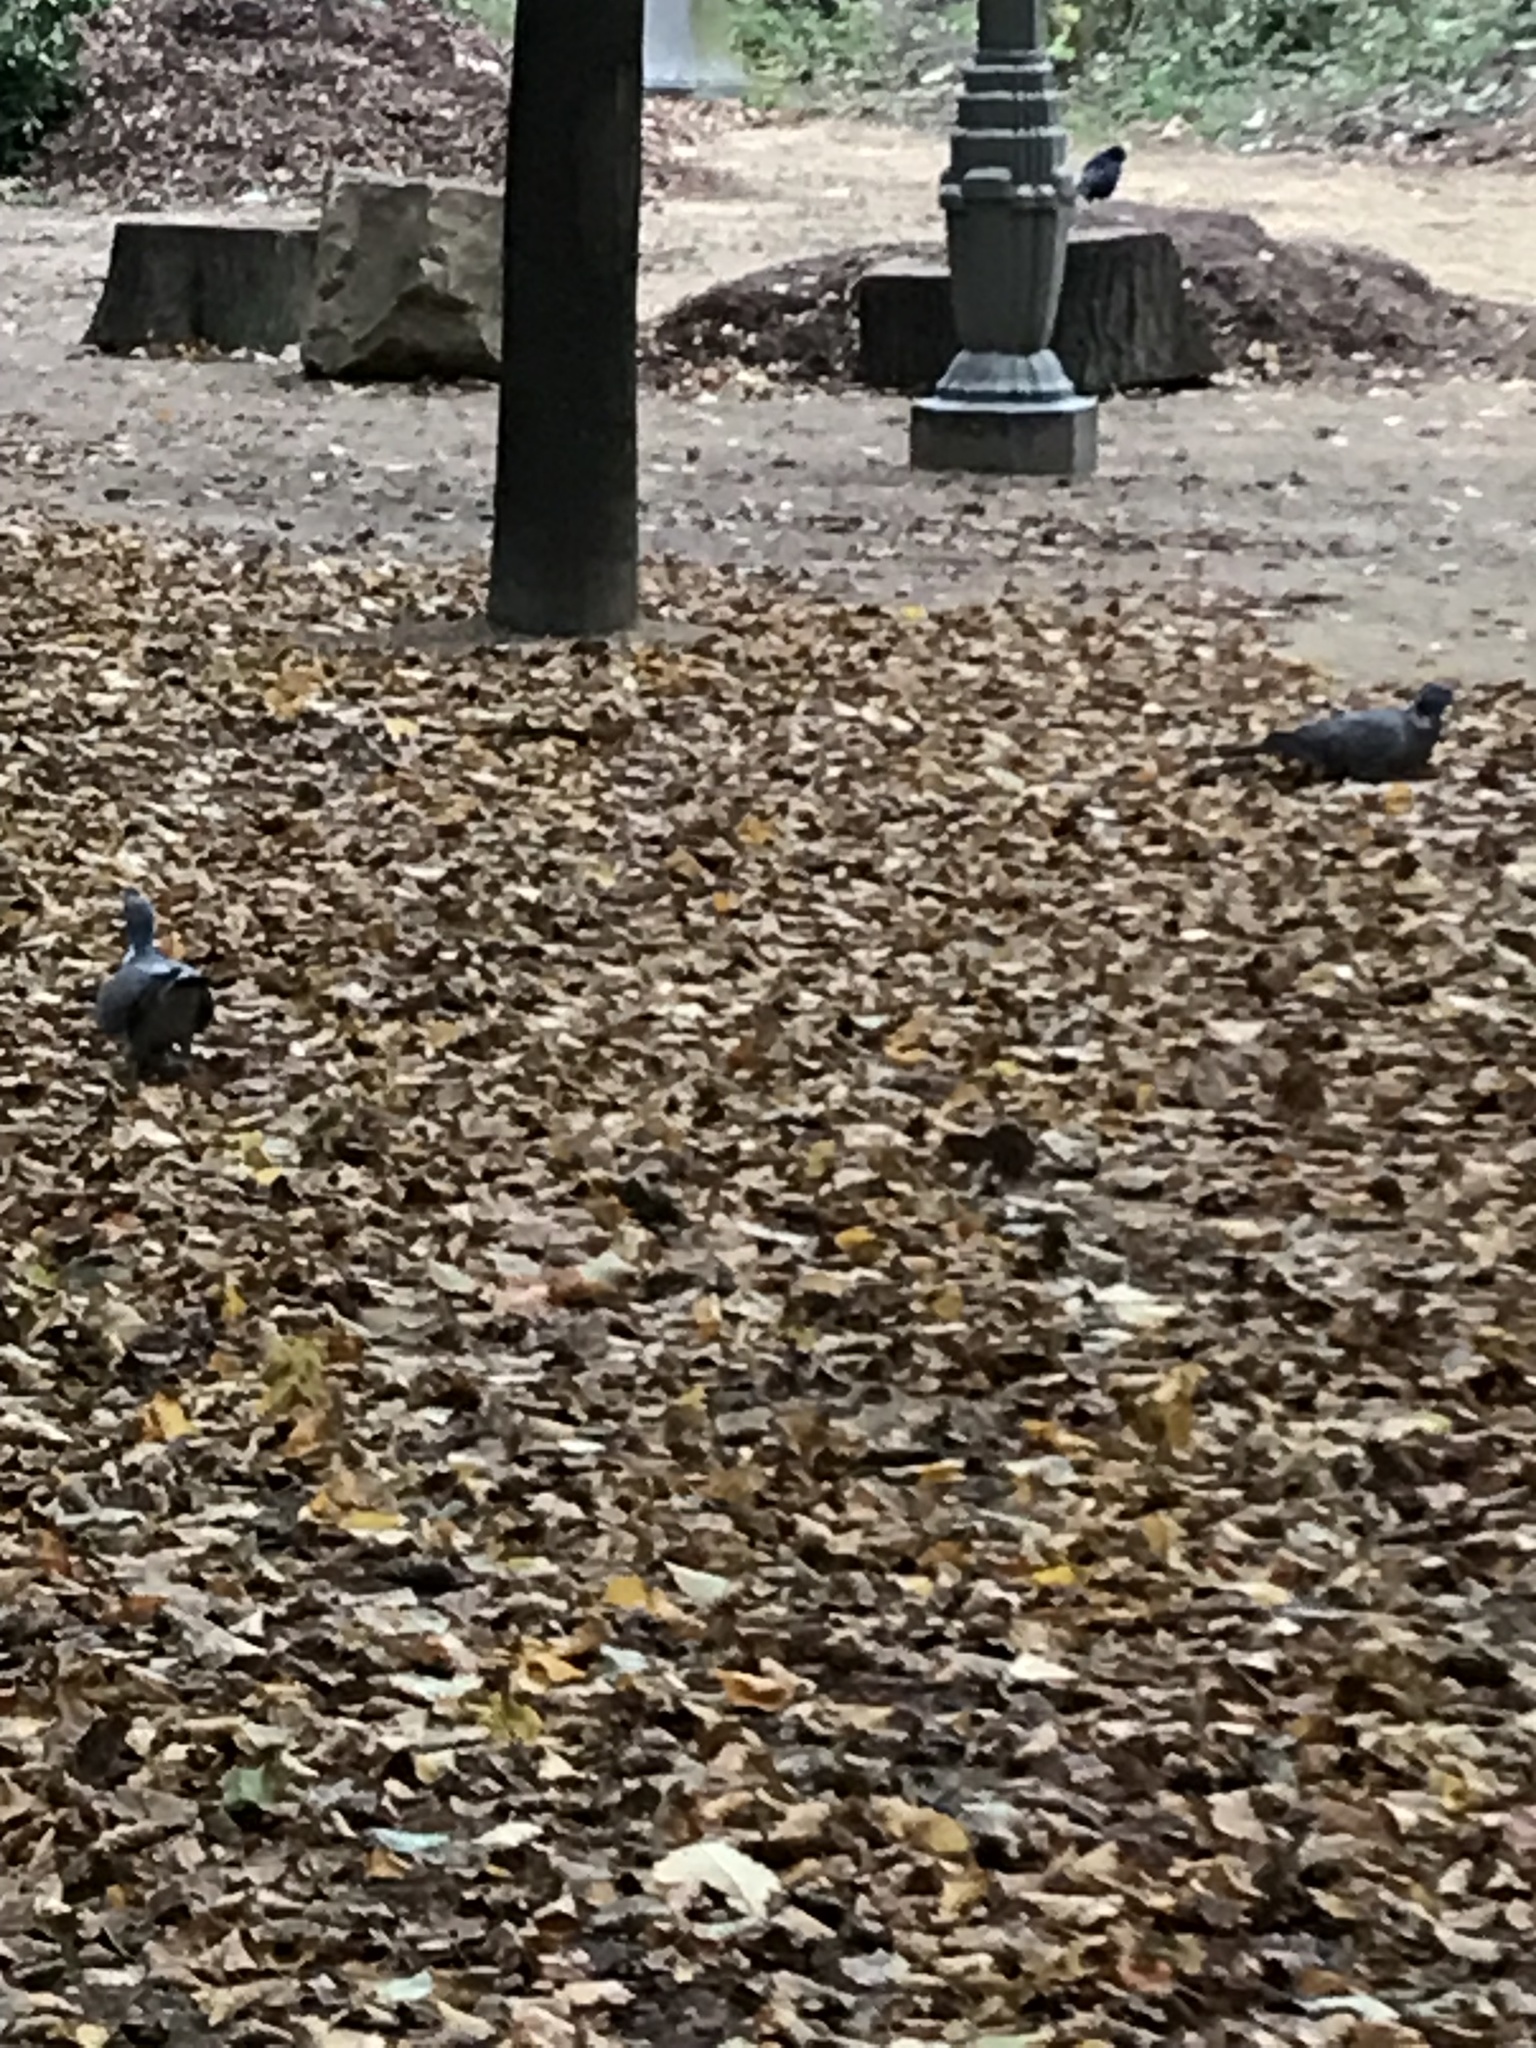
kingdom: Animalia
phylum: Chordata
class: Aves
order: Columbiformes
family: Columbidae
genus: Columba
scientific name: Columba palumbus
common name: Common wood pigeon
